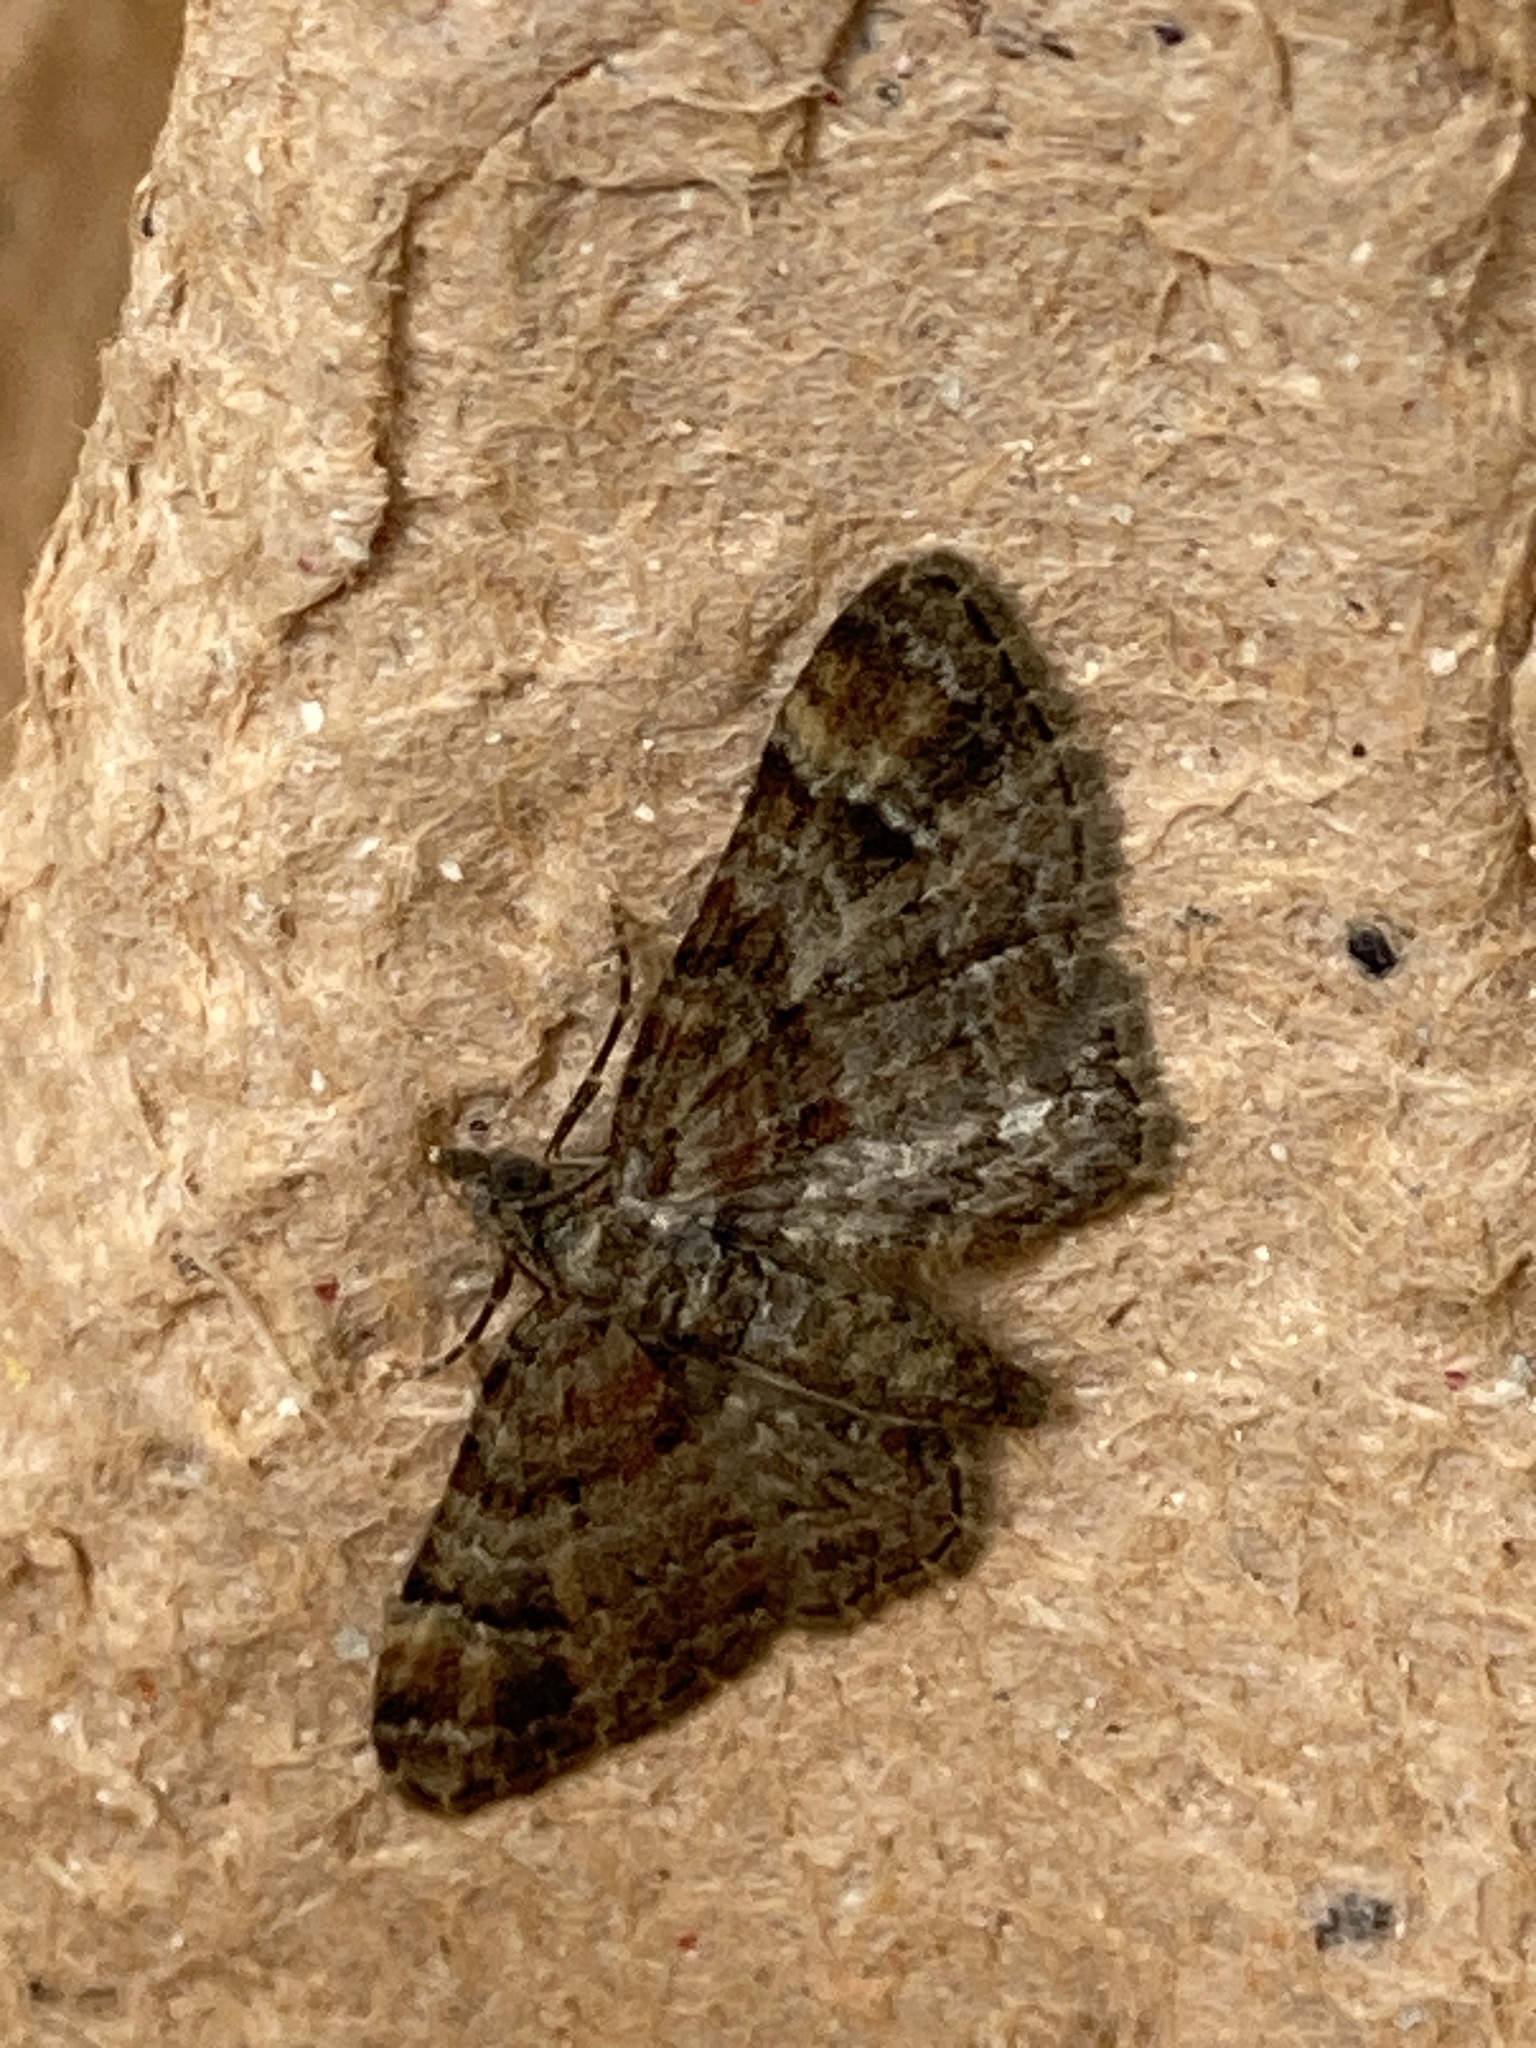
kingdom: Animalia
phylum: Arthropoda
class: Insecta
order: Lepidoptera
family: Geometridae
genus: Gymnoscelis
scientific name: Gymnoscelis rufifasciata
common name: Double-striped pug
